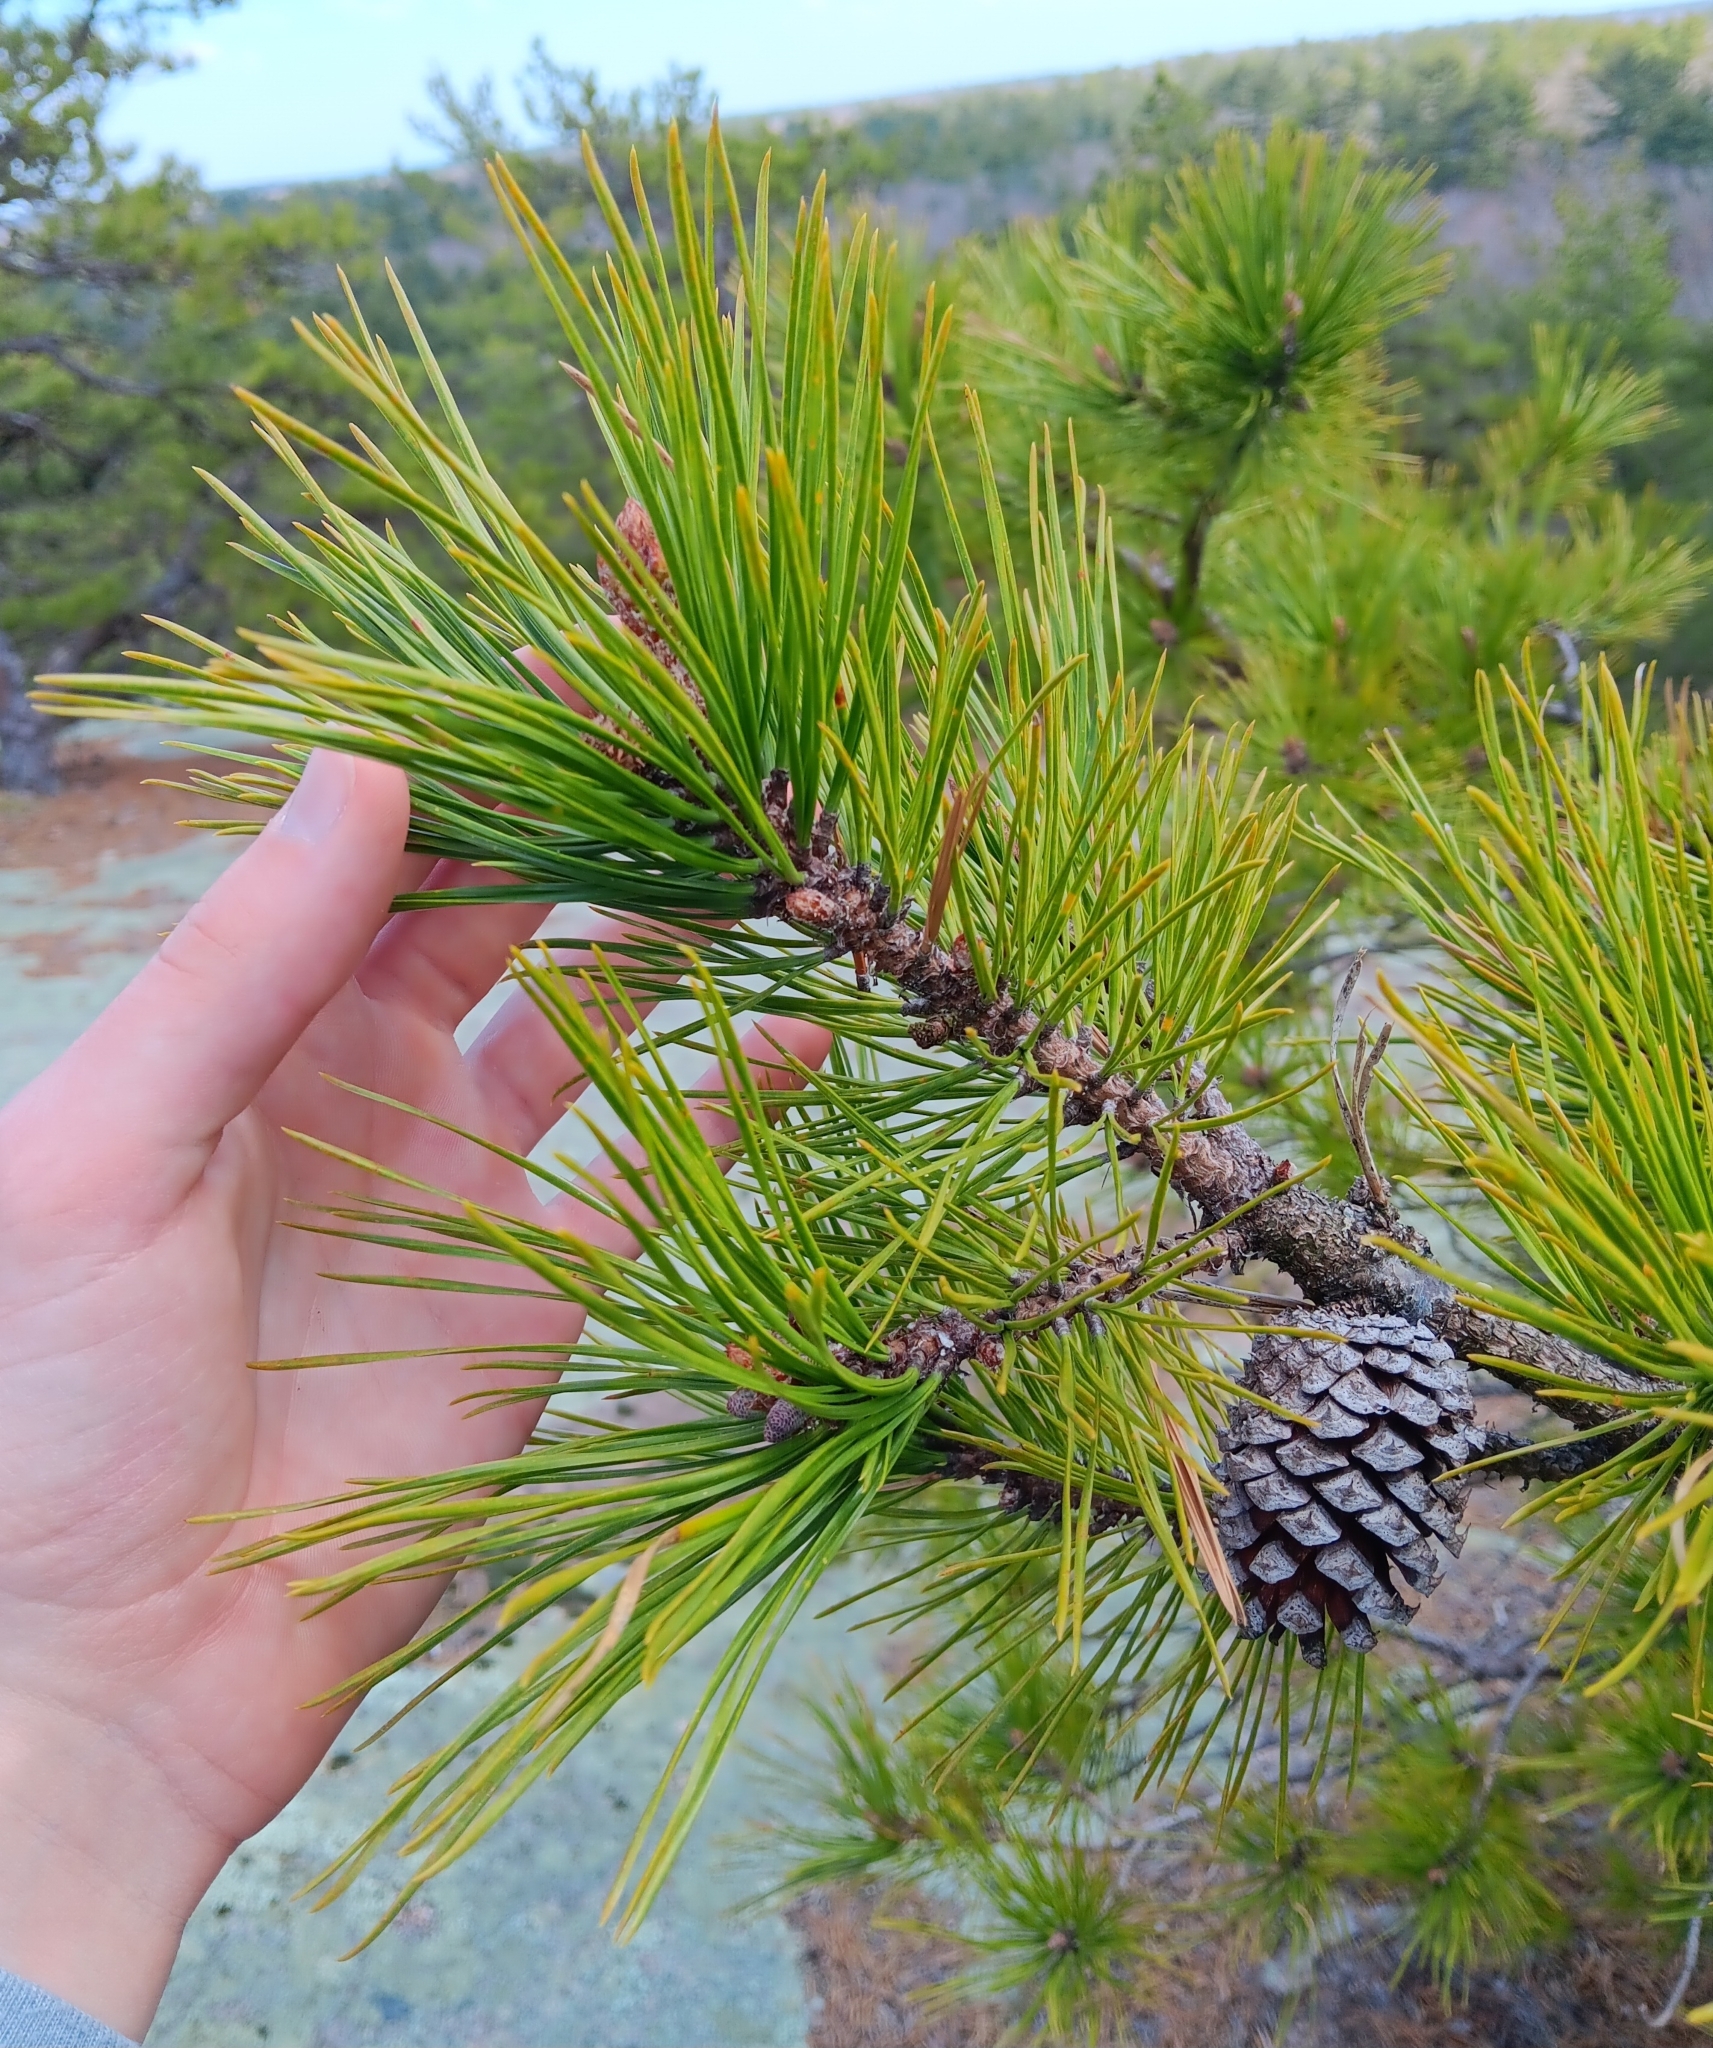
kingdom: Plantae
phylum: Tracheophyta
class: Pinopsida
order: Pinales
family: Pinaceae
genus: Pinus
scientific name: Pinus rigida
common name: Pitch pine
